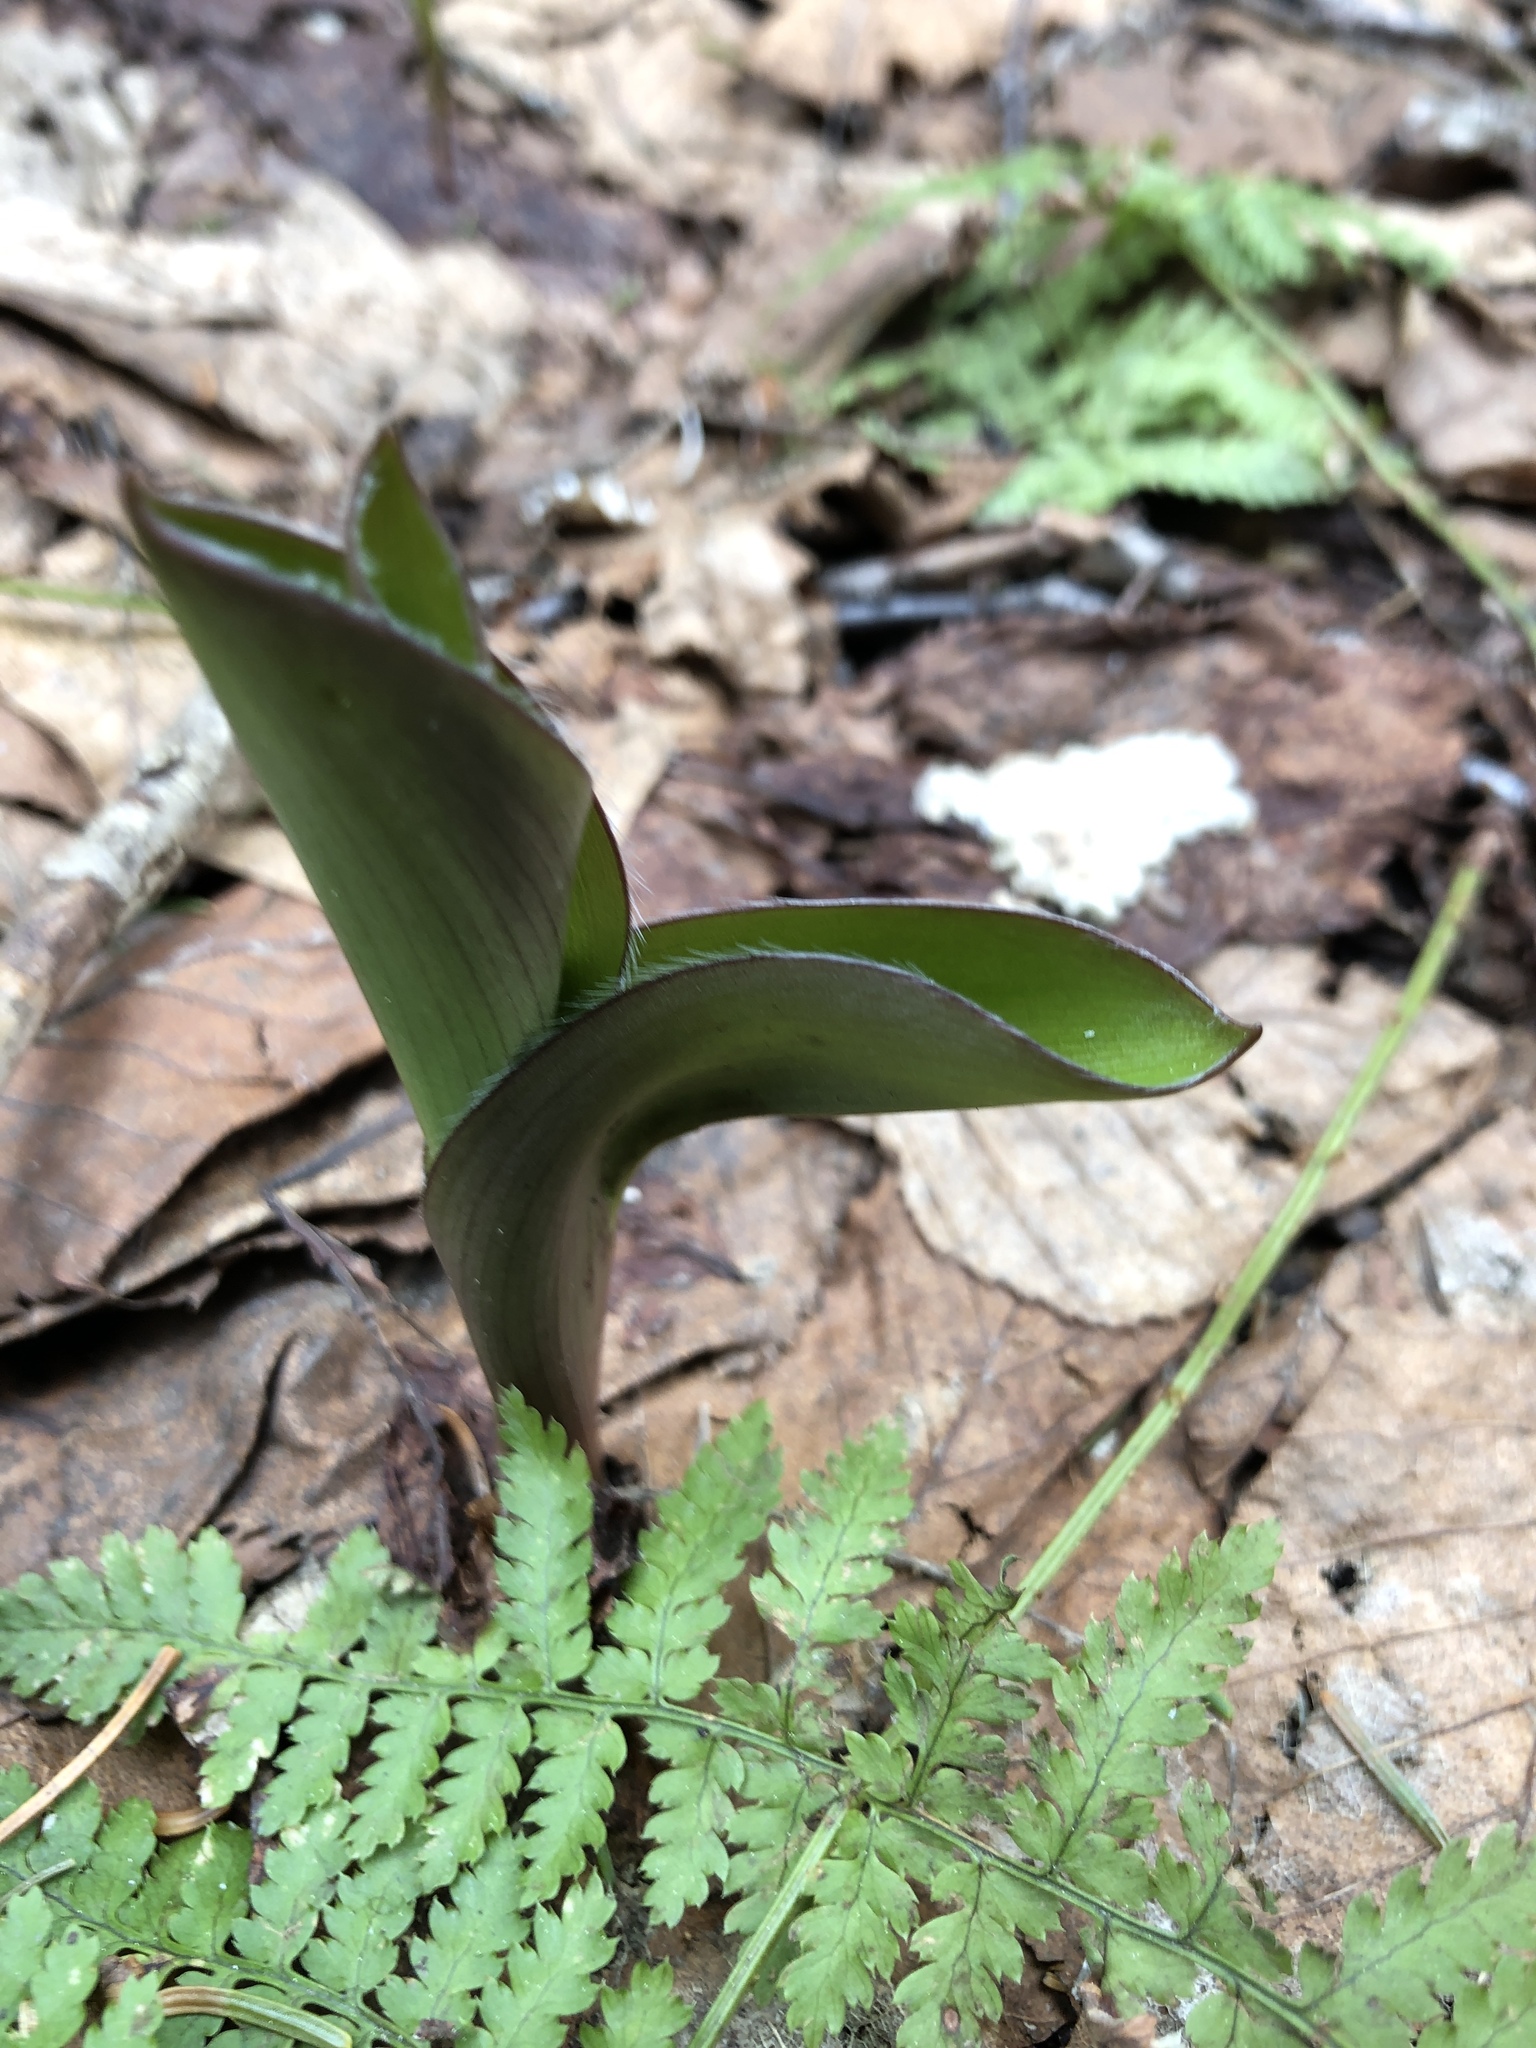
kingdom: Plantae
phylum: Tracheophyta
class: Liliopsida
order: Liliales
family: Liliaceae
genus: Clintonia
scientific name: Clintonia borealis
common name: Yellow clintonia
